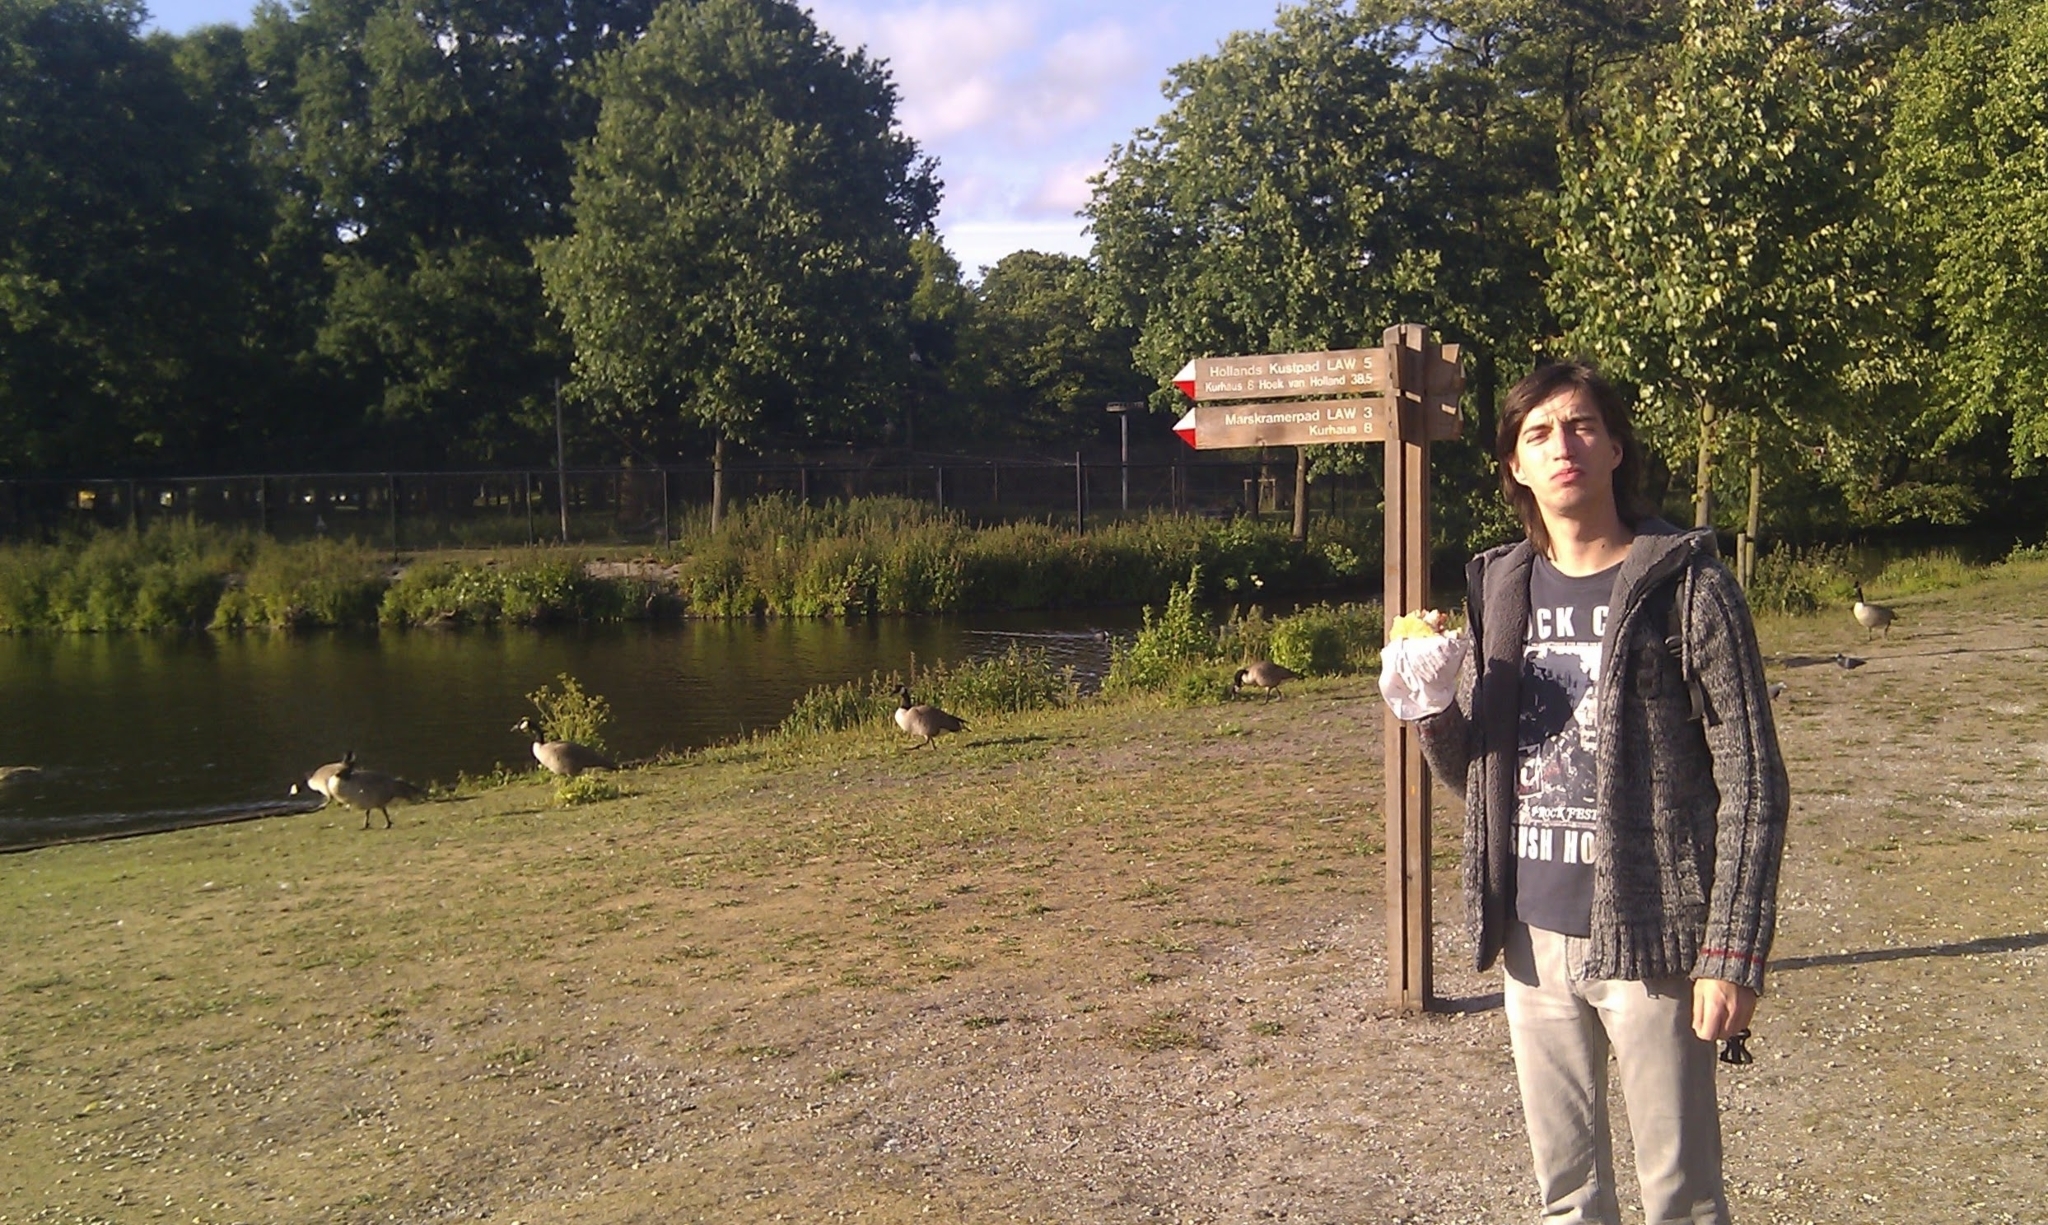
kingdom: Animalia
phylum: Chordata
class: Aves
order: Anseriformes
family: Anatidae
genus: Branta
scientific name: Branta canadensis
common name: Canada goose
